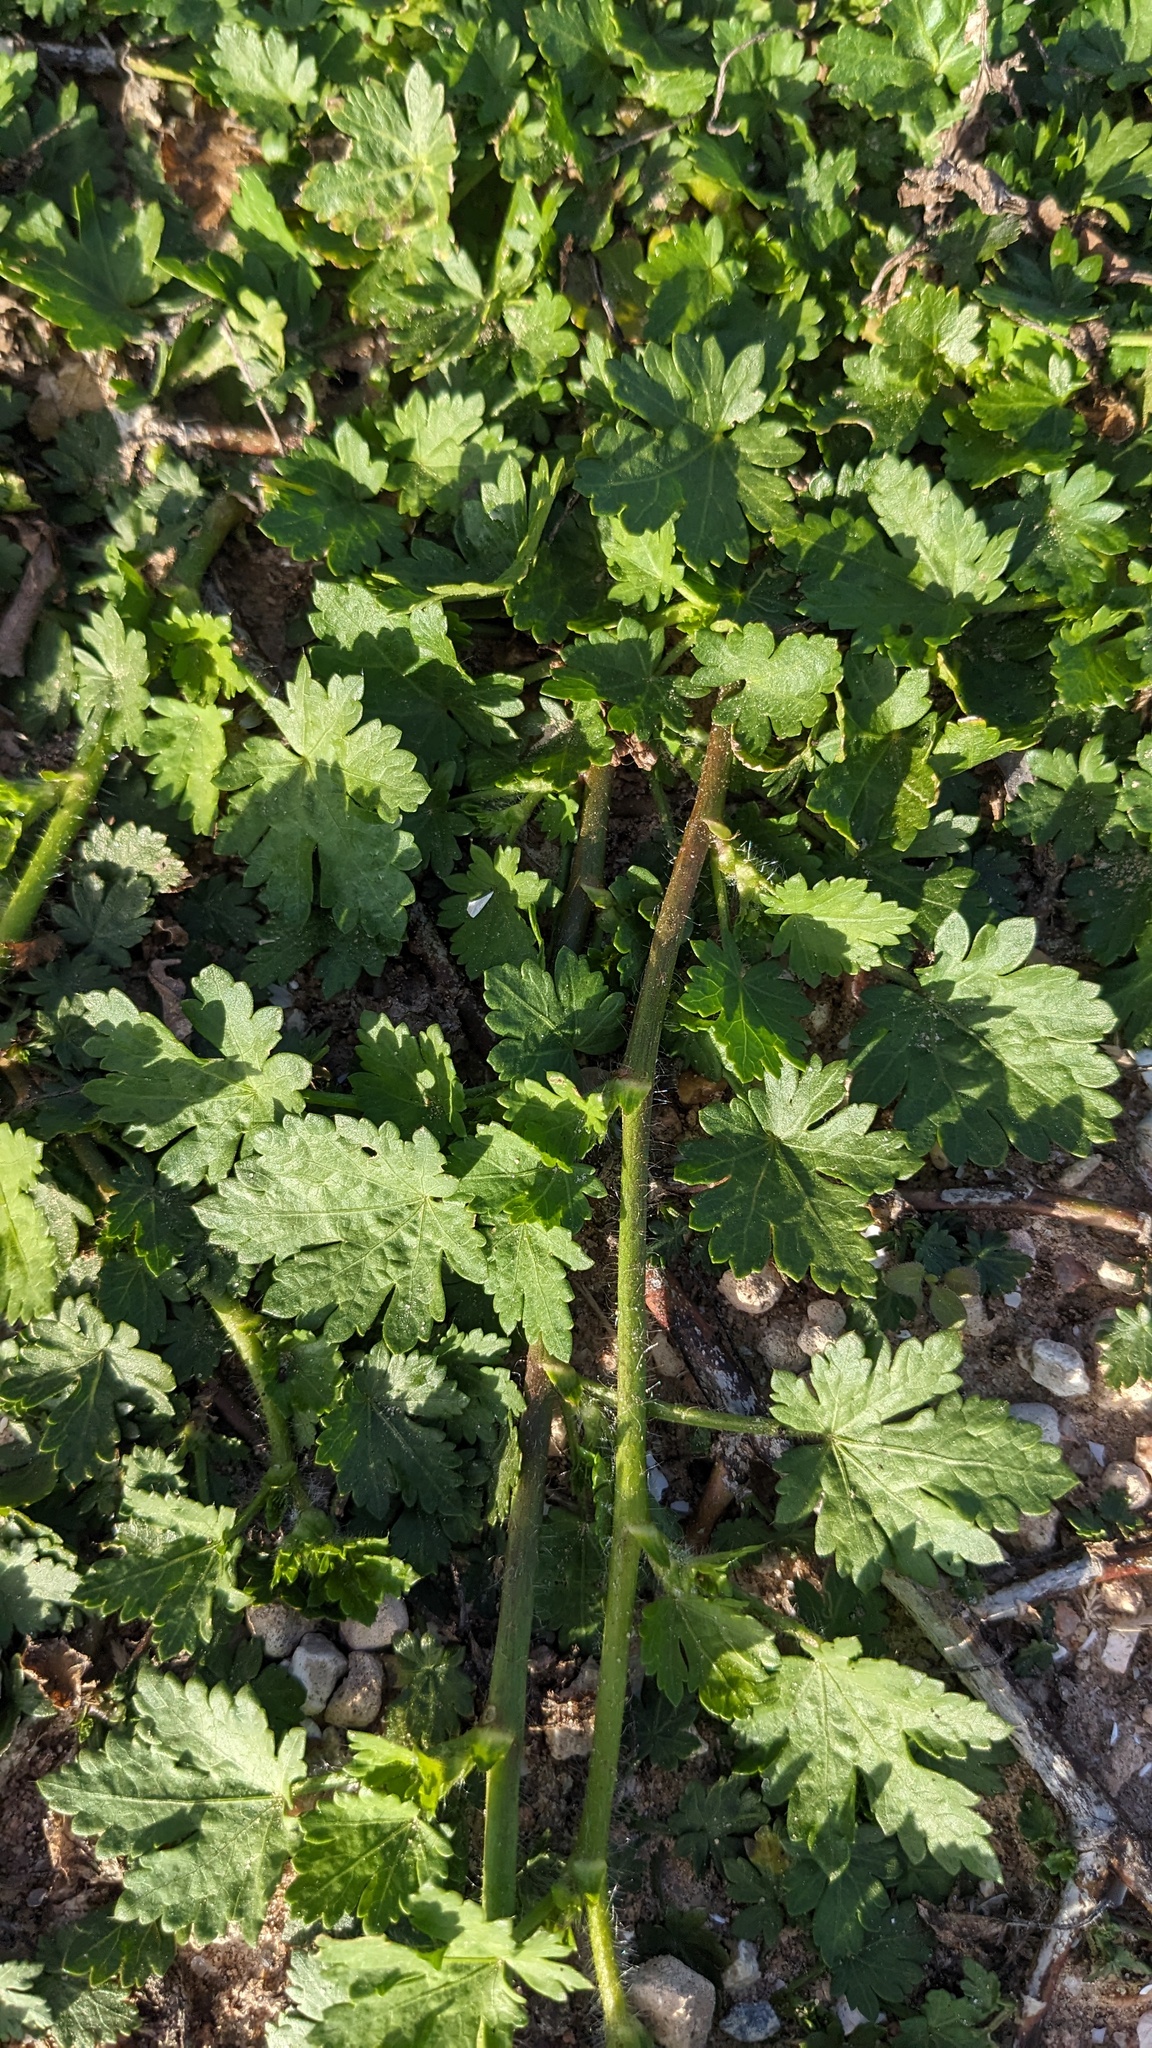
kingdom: Plantae
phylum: Tracheophyta
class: Magnoliopsida
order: Malvales
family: Malvaceae
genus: Modiola
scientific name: Modiola caroliniana
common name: Carolina bristlemallow
